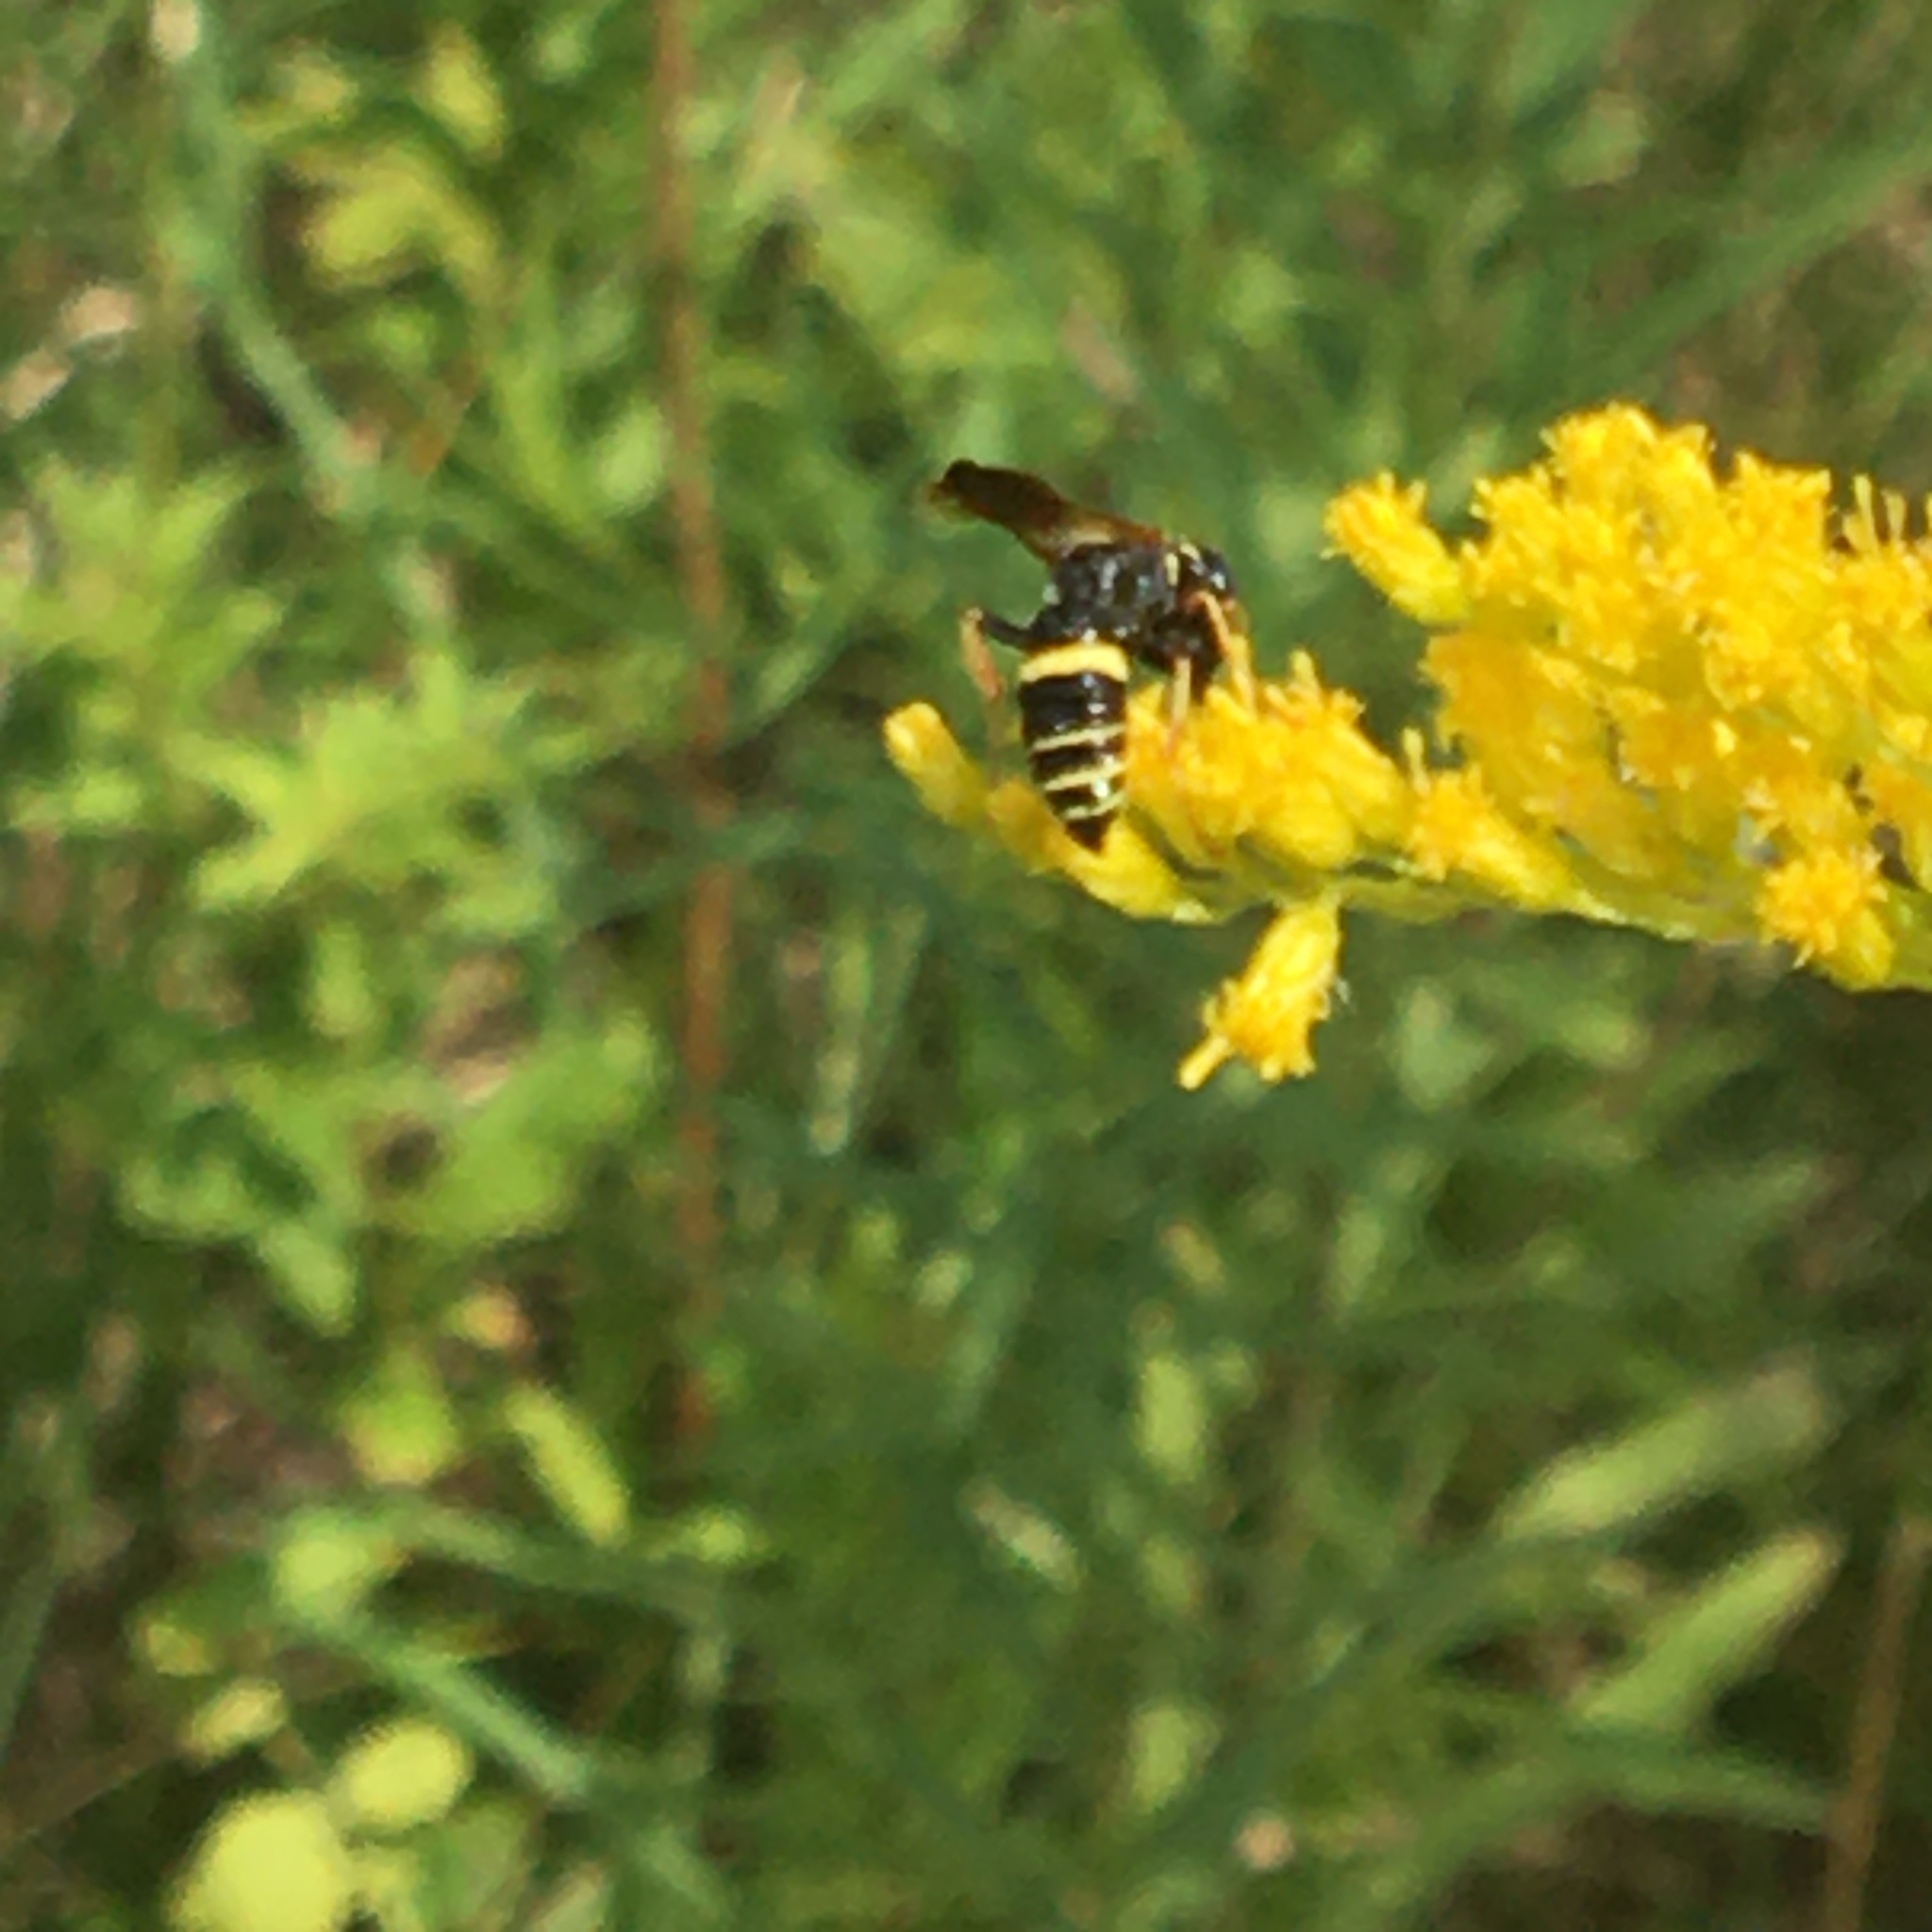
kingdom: Animalia
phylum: Arthropoda
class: Insecta
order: Hymenoptera
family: Crabronidae
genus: Philanthus
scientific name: Philanthus gibbosus
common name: Humped beewolf
